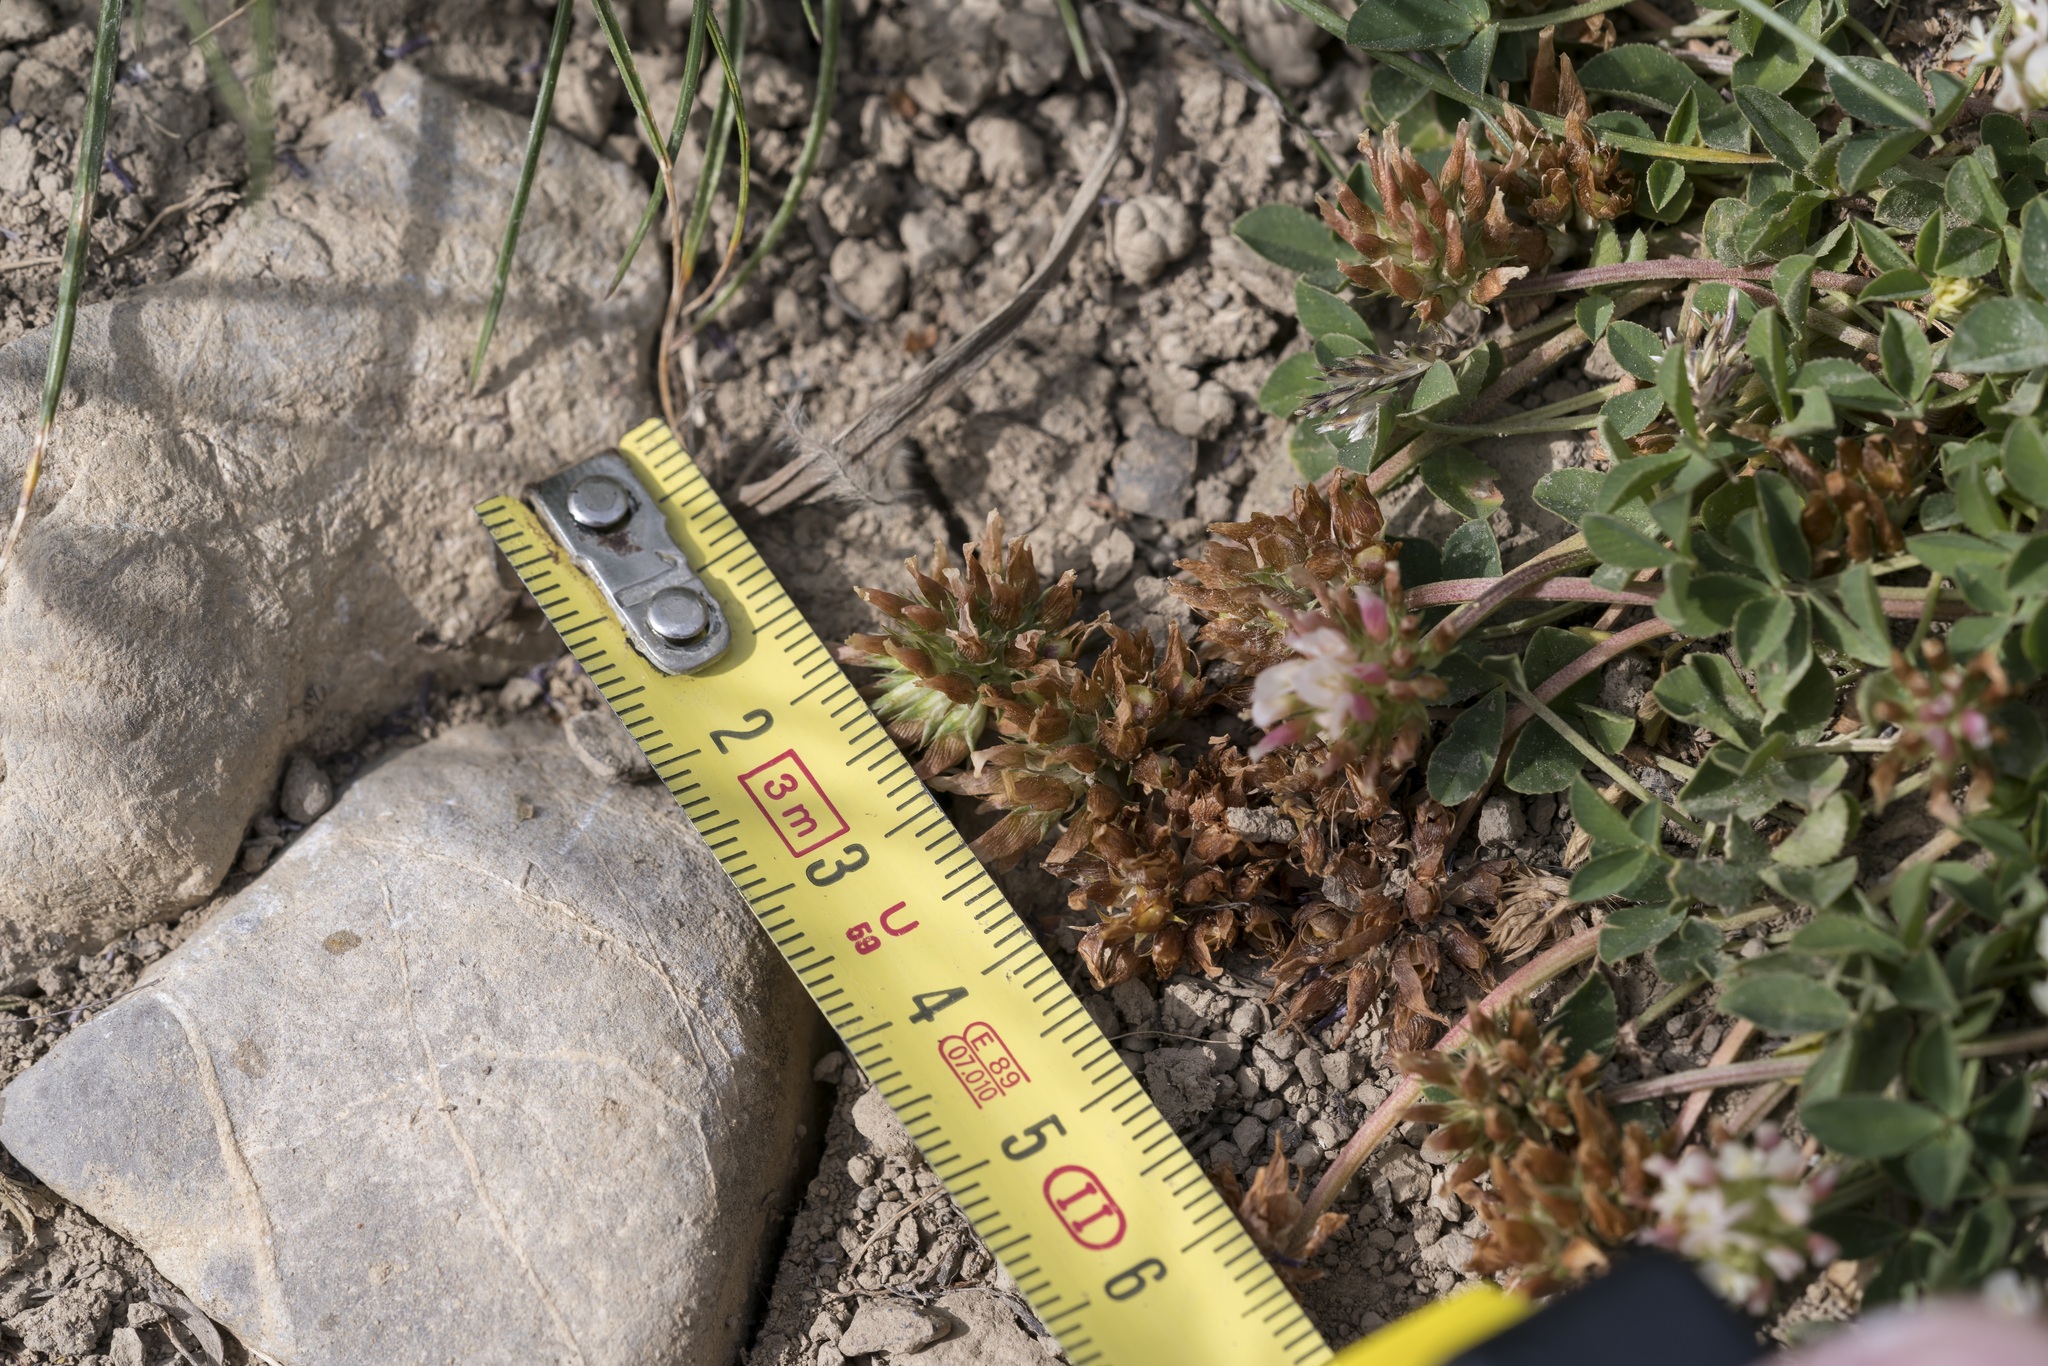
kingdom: Plantae
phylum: Tracheophyta
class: Magnoliopsida
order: Fabales
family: Fabaceae
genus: Trifolium
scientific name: Trifolium thalii
